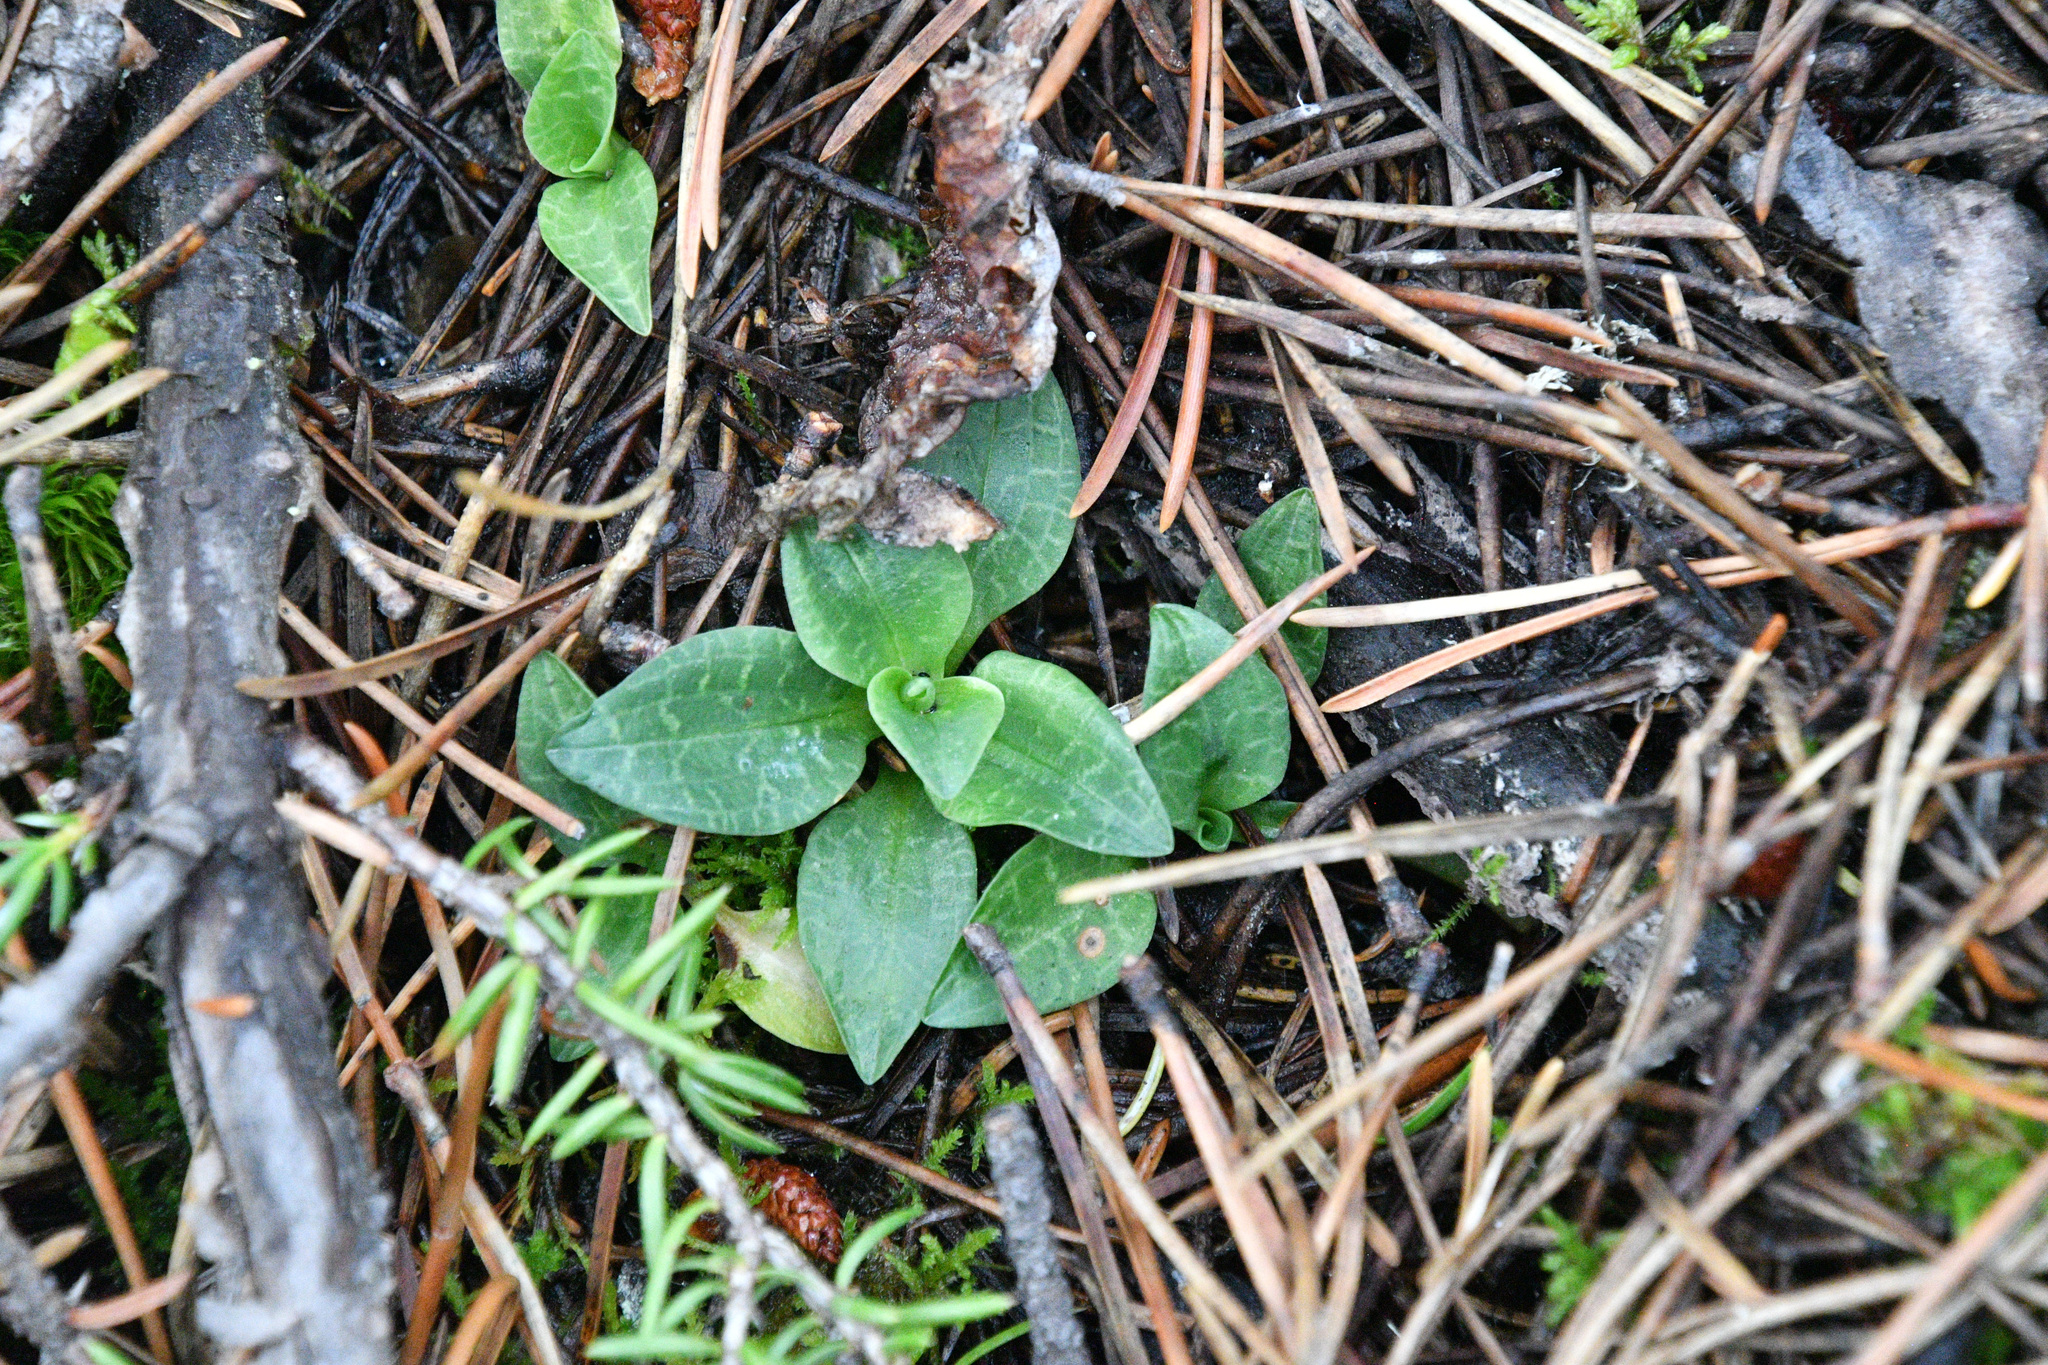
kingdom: Plantae
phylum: Tracheophyta
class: Liliopsida
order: Asparagales
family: Orchidaceae
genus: Goodyera
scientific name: Goodyera repens
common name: Creeping lady's-tresses
